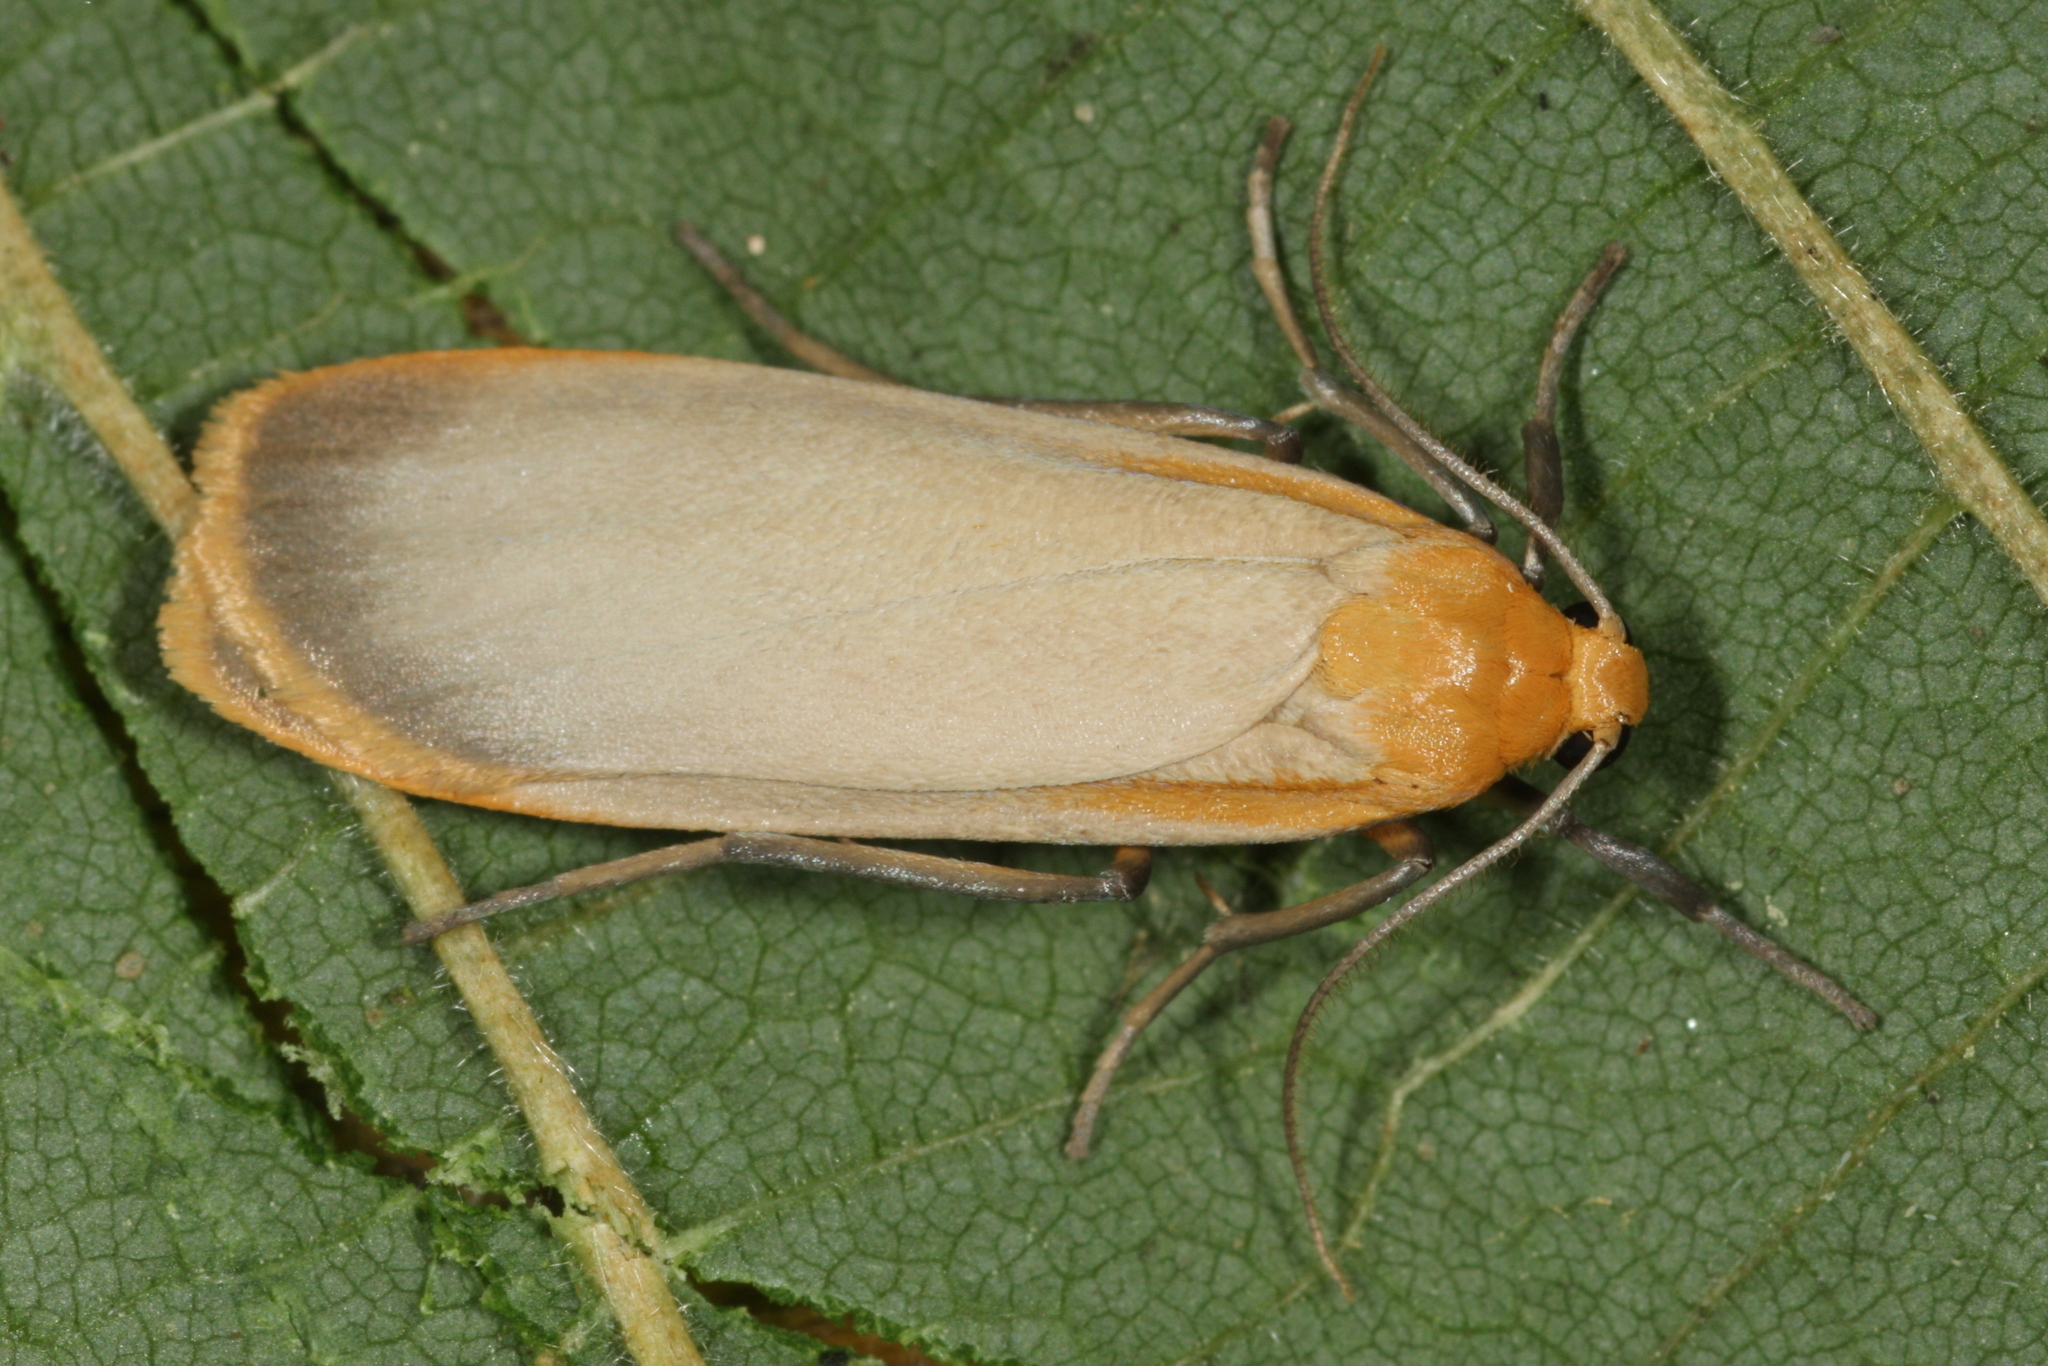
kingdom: Animalia
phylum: Arthropoda
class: Insecta
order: Lepidoptera
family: Erebidae
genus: Katha
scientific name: Katha depressa
